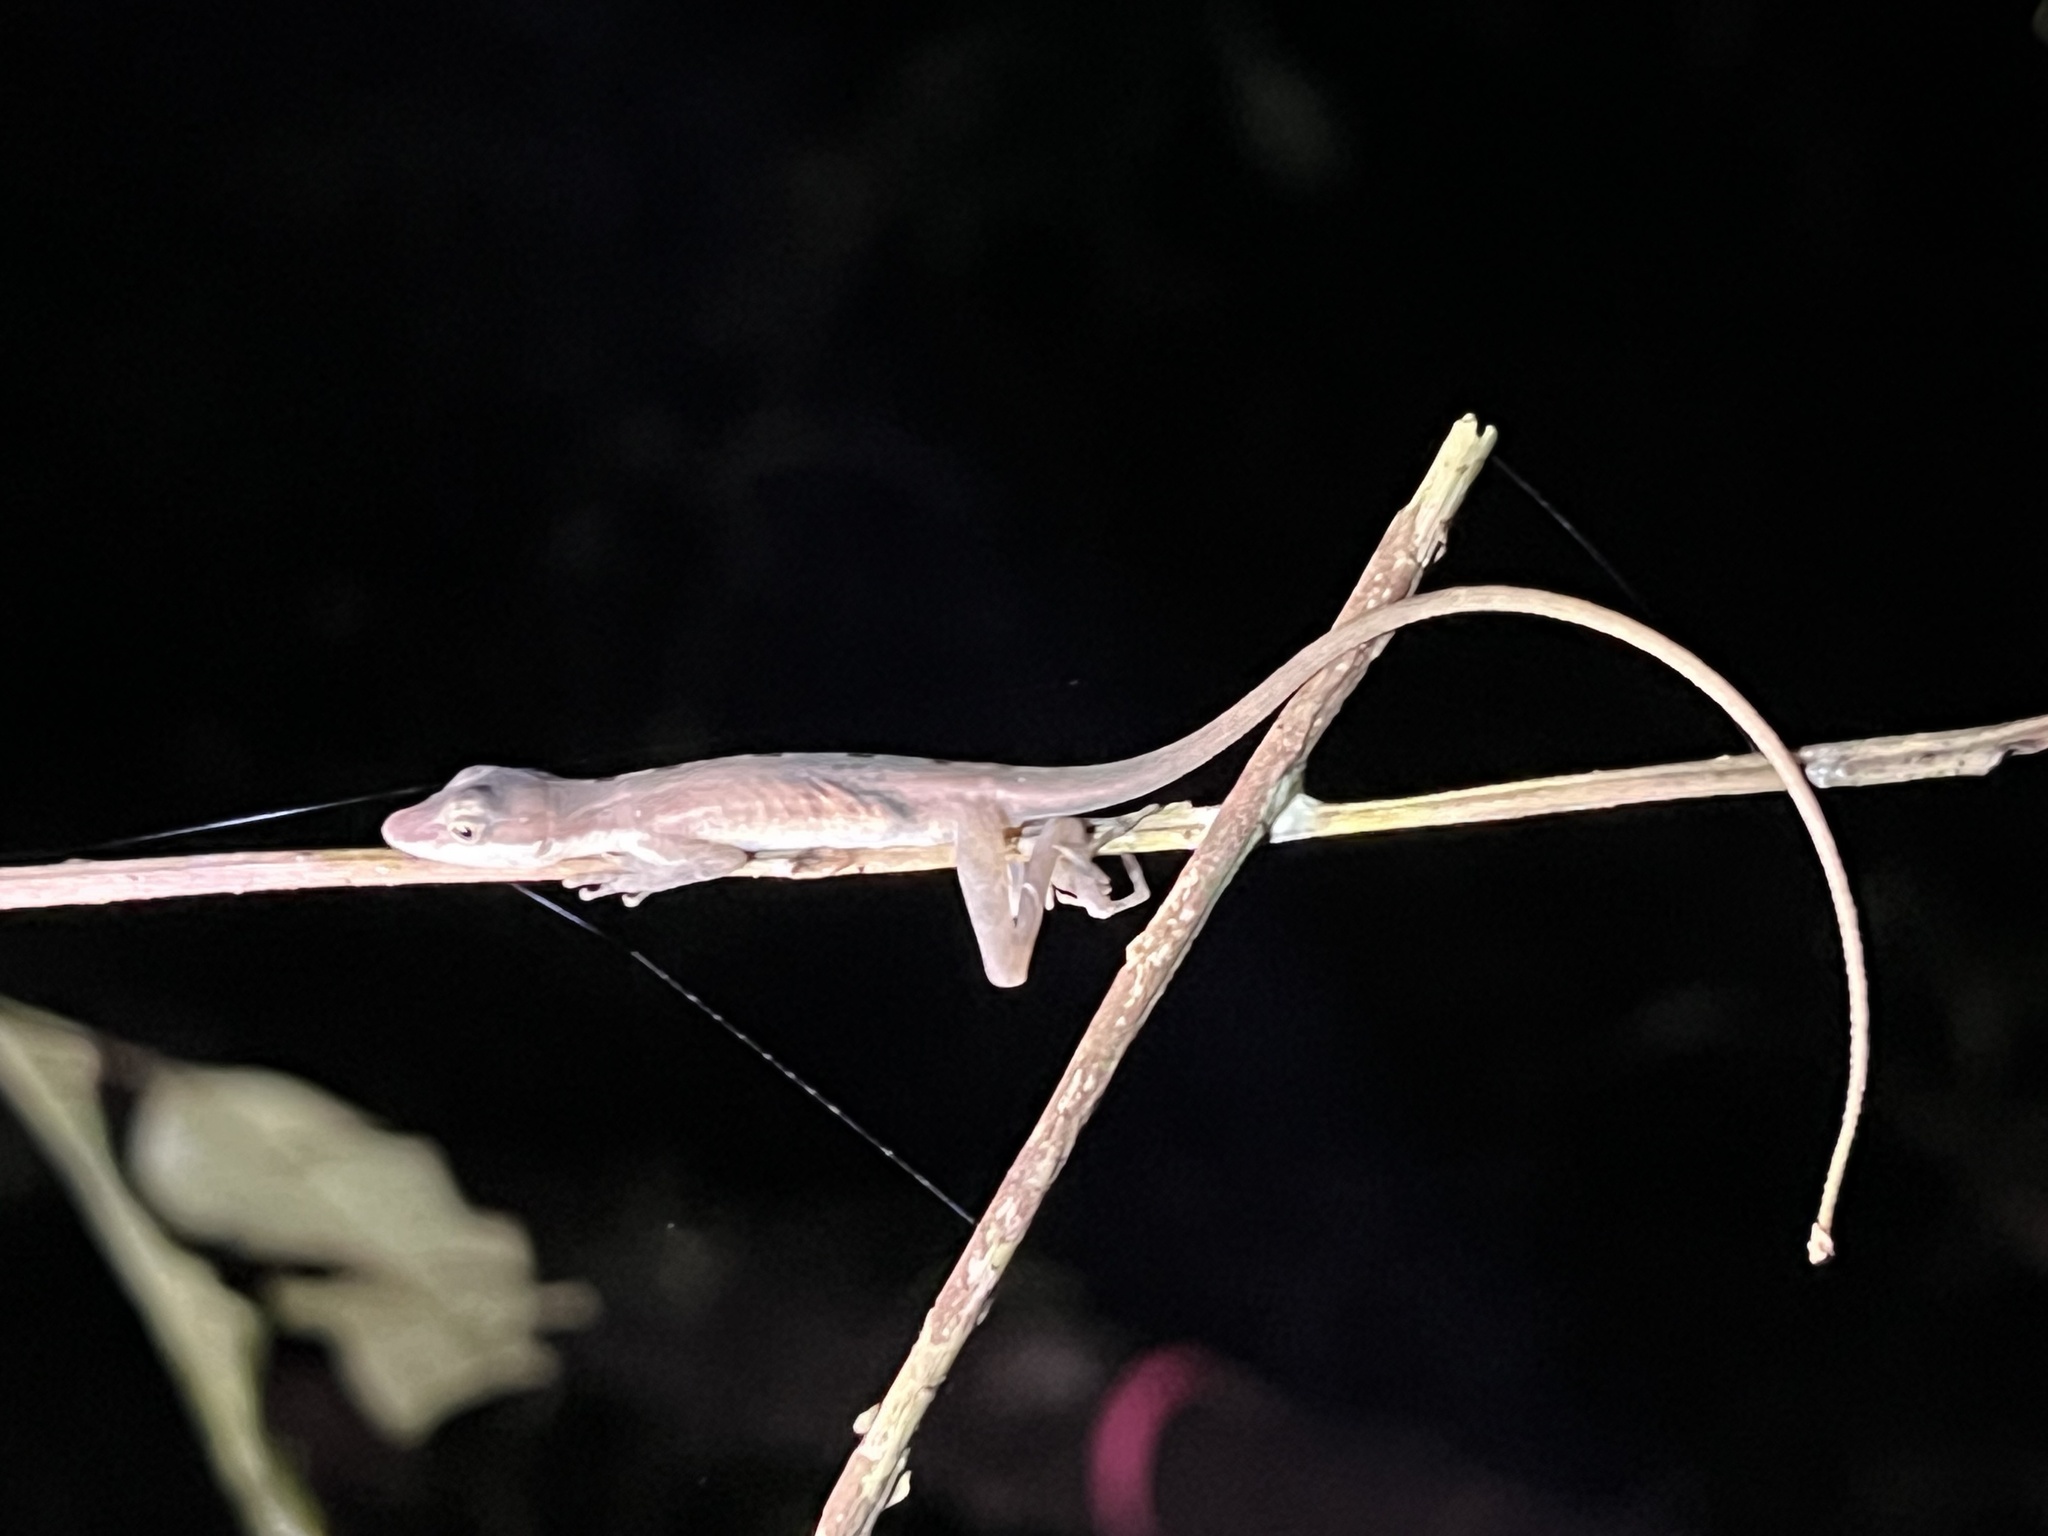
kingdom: Animalia
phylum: Chordata
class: Squamata
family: Dactyloidae
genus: Anolis
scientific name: Anolis limifrons
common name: Border anole
